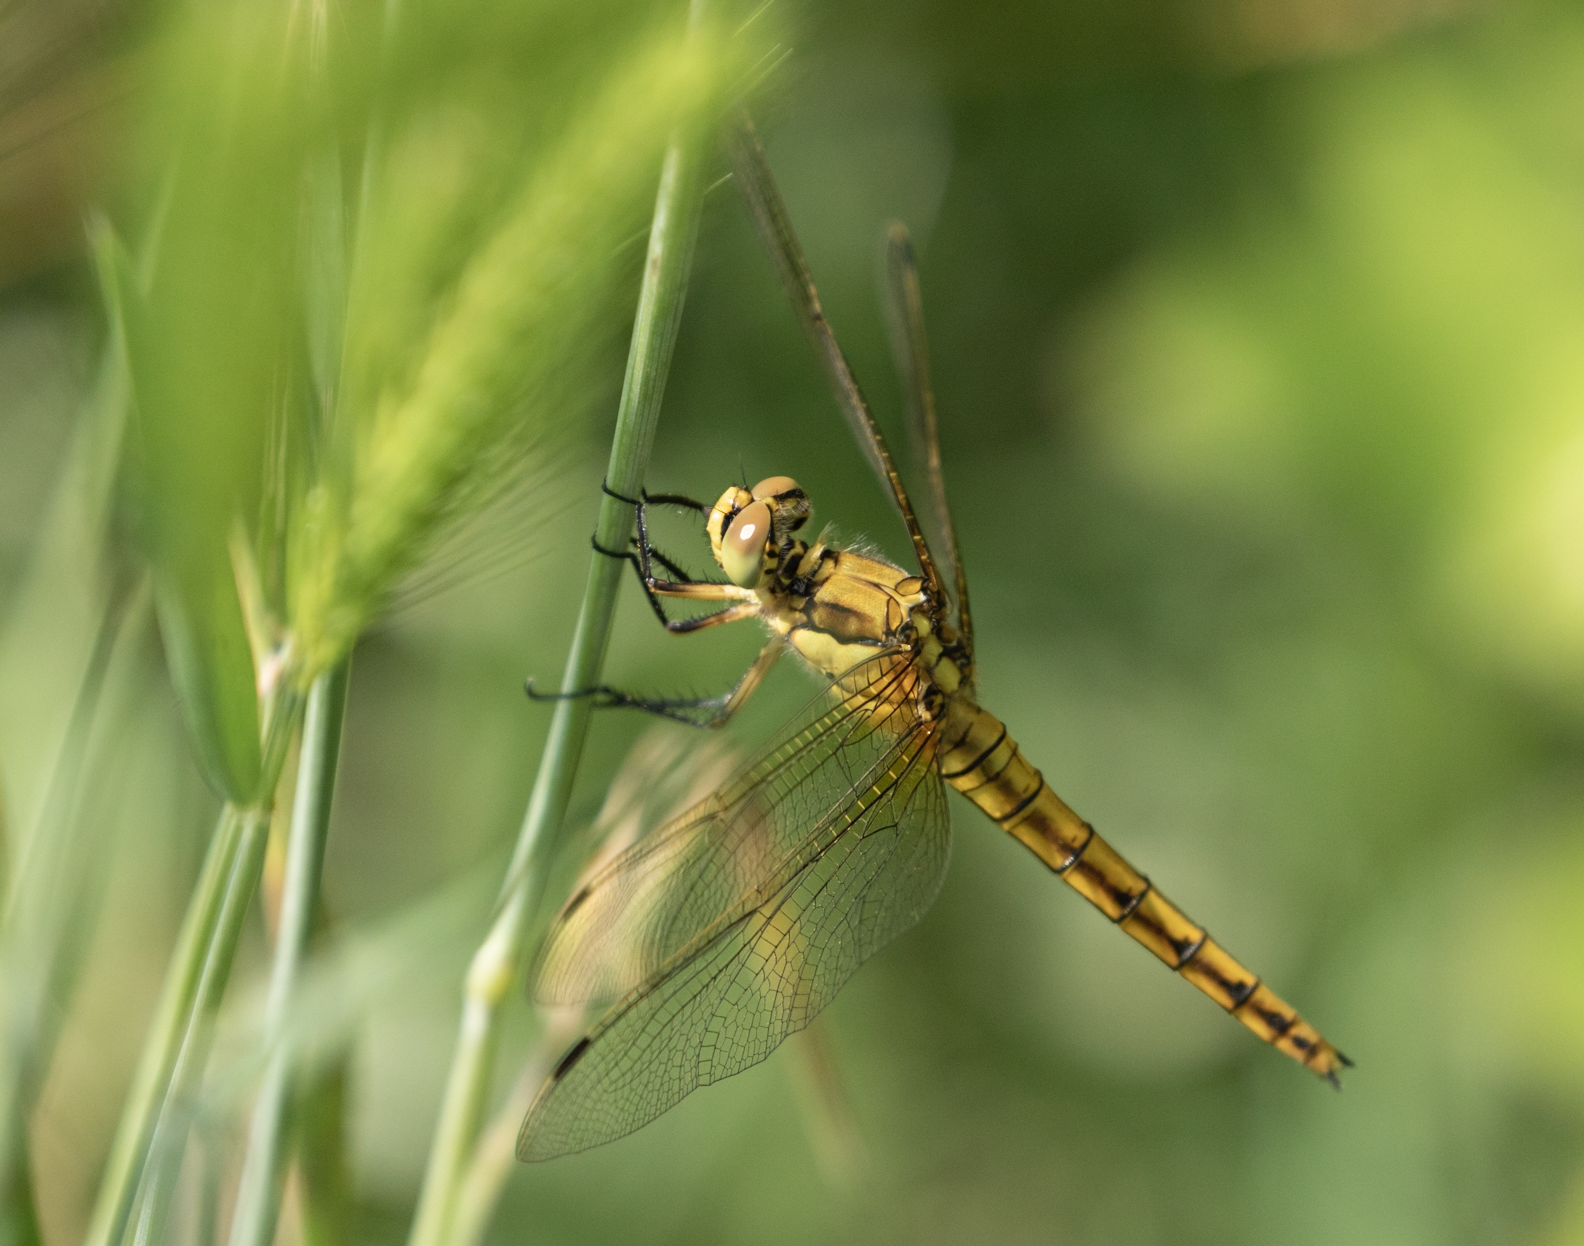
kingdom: Animalia
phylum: Arthropoda
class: Insecta
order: Odonata
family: Libellulidae
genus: Orthetrum
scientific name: Orthetrum cancellatum
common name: Black-tailed skimmer
